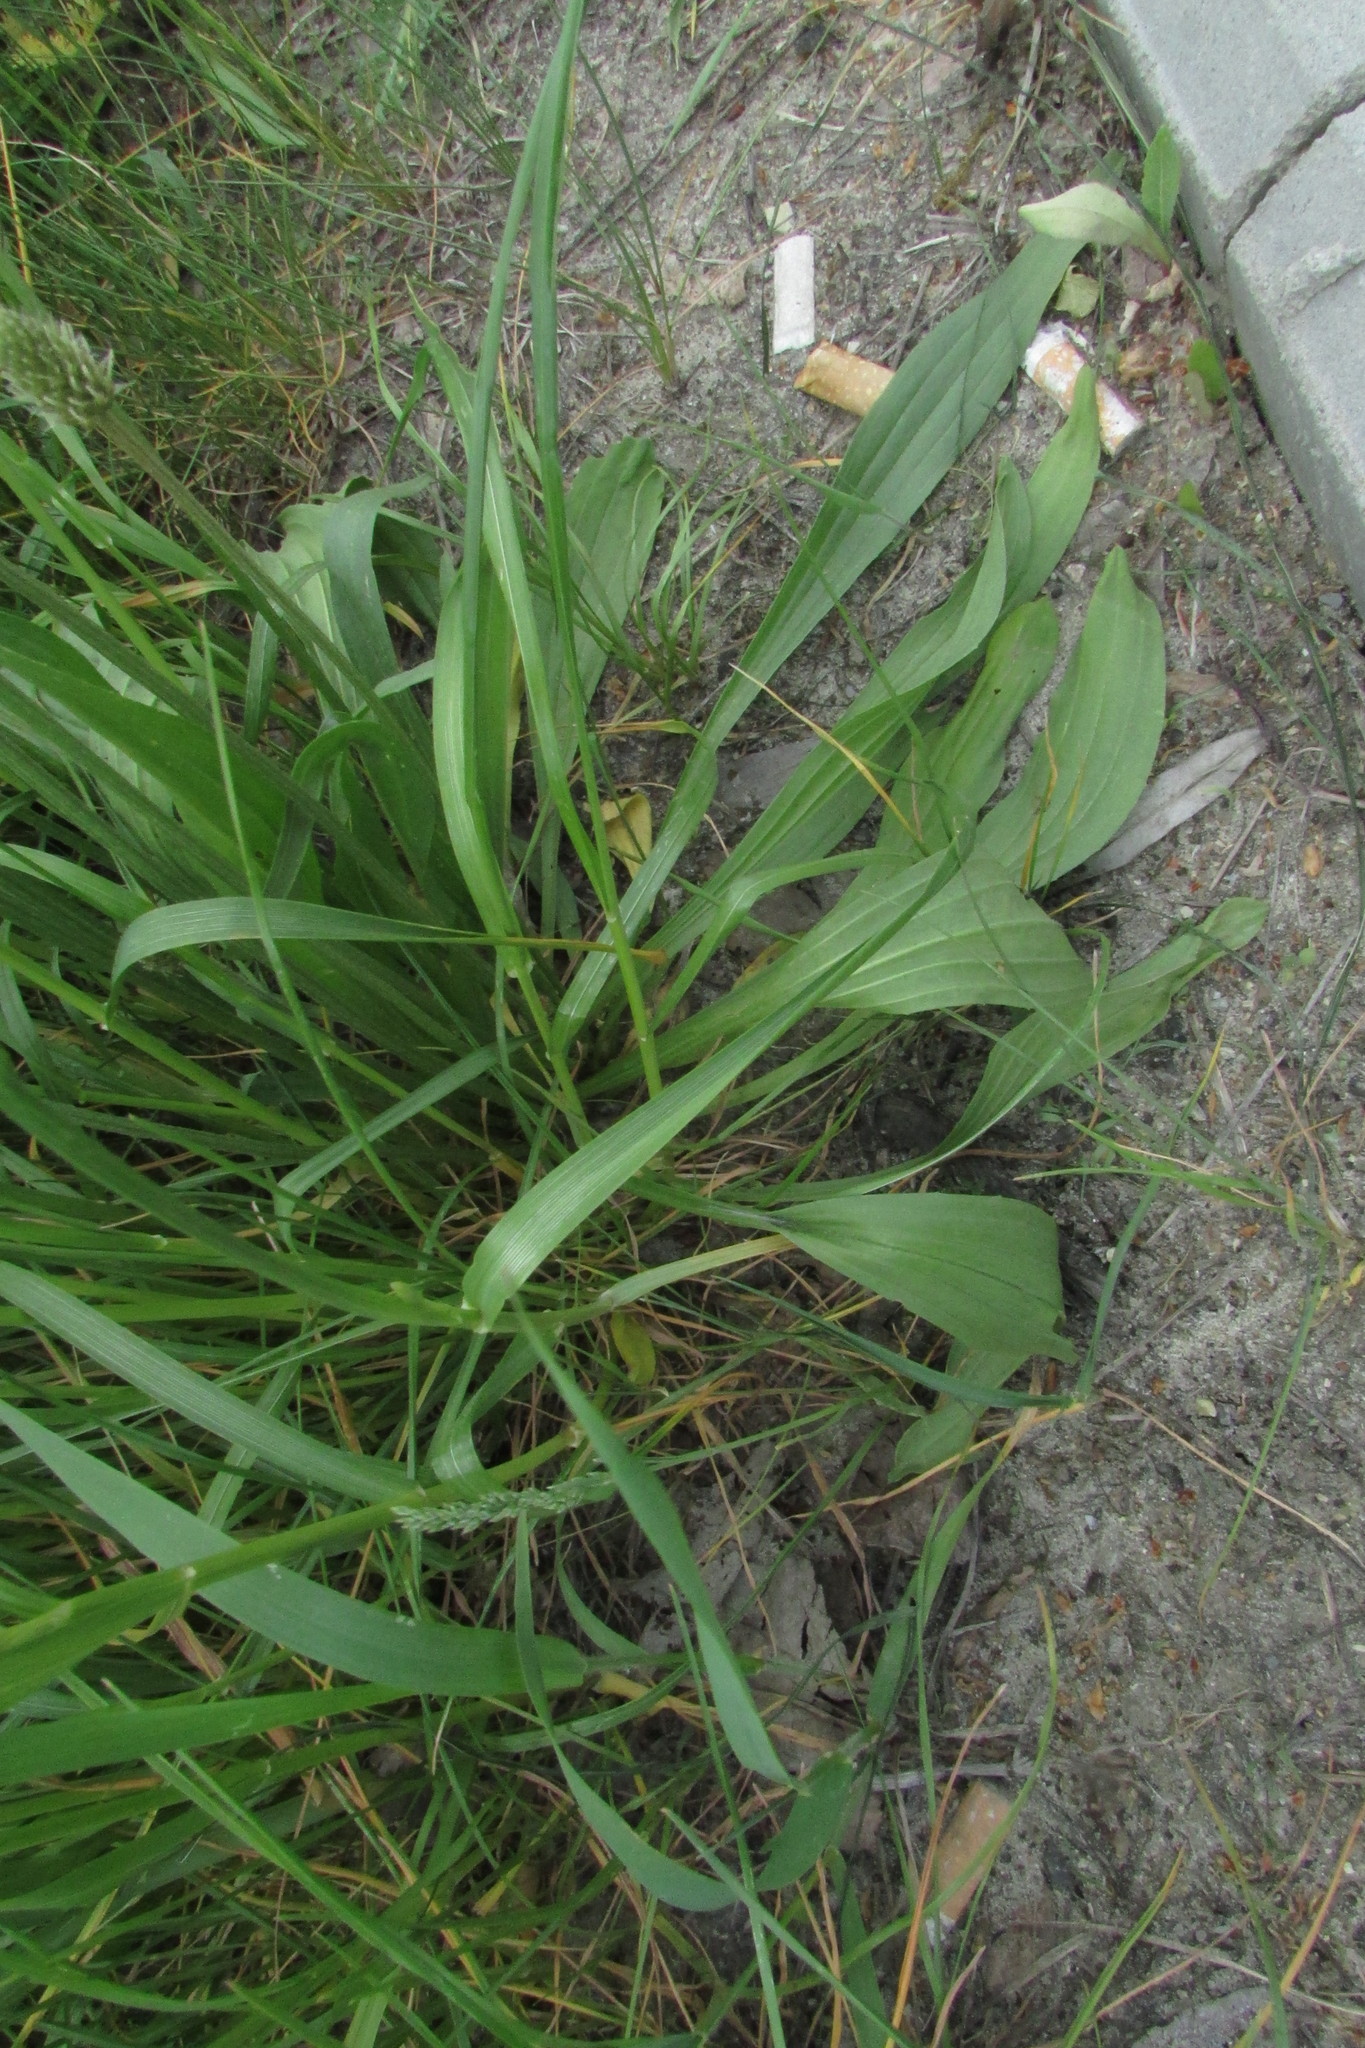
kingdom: Plantae
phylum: Tracheophyta
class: Magnoliopsida
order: Lamiales
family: Plantaginaceae
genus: Plantago
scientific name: Plantago lanceolata
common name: Ribwort plantain
